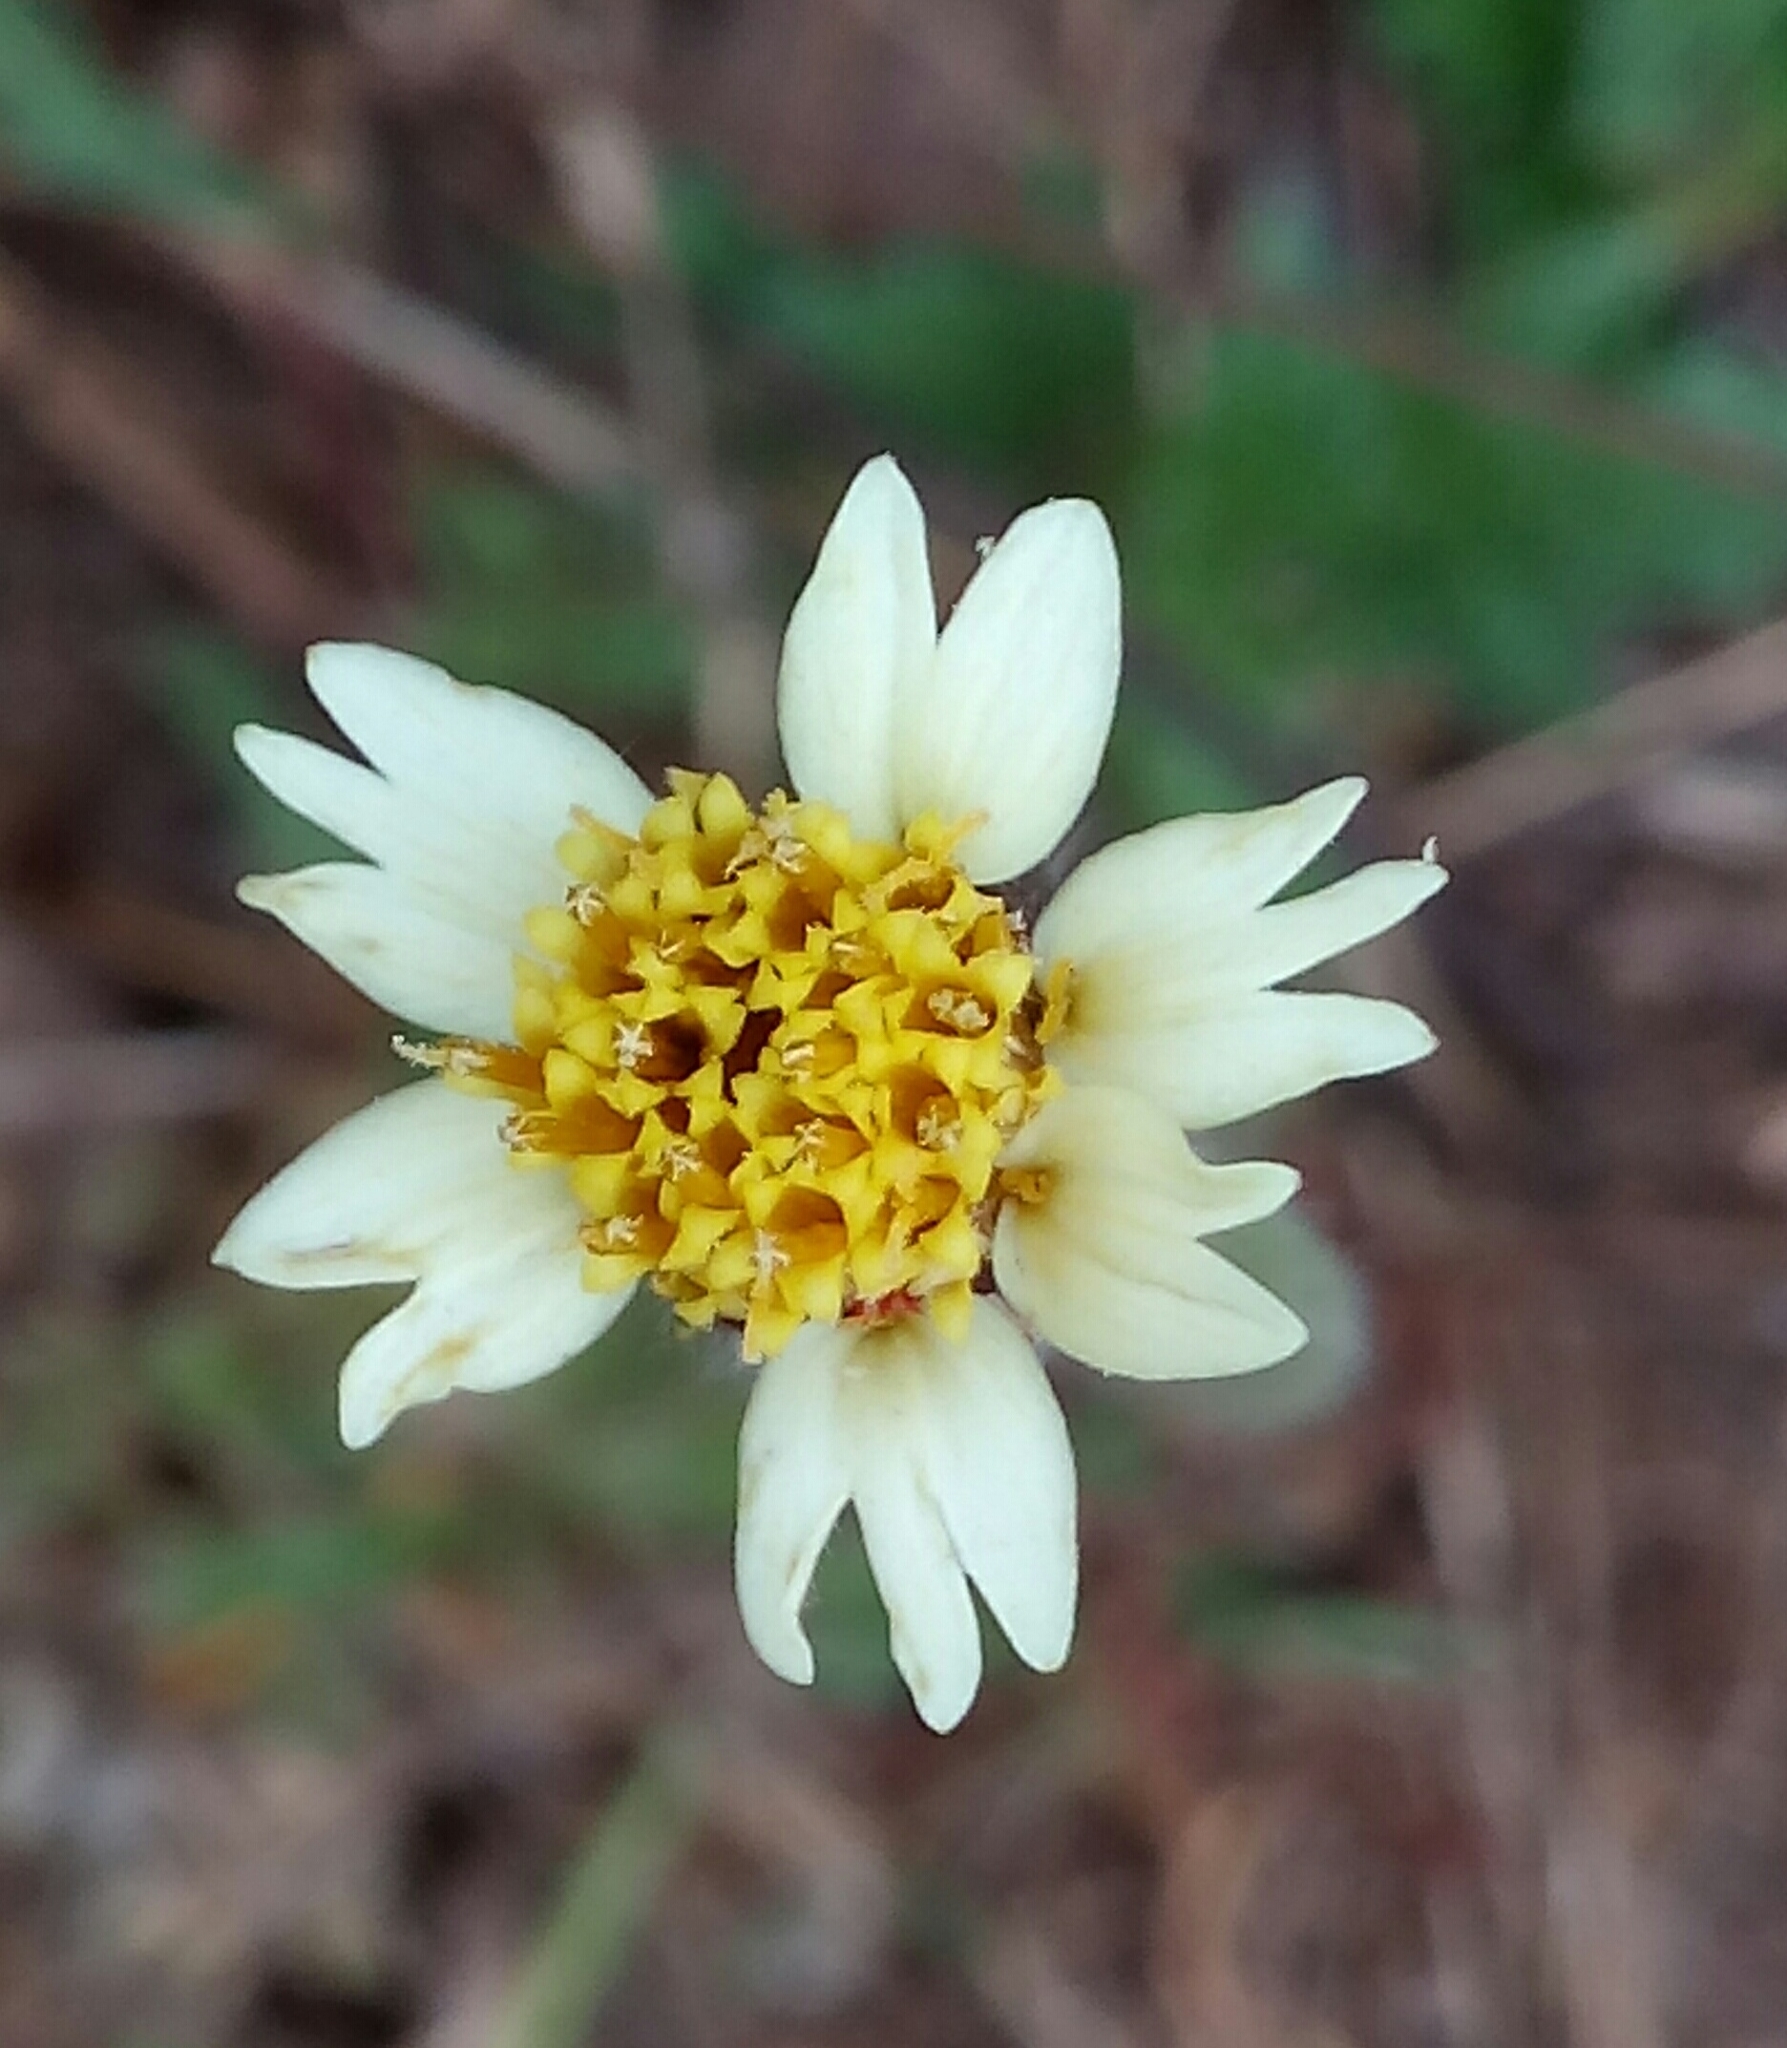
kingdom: Plantae
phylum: Tracheophyta
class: Magnoliopsida
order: Asterales
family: Asteraceae
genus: Tridax
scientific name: Tridax procumbens
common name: Coatbuttons
